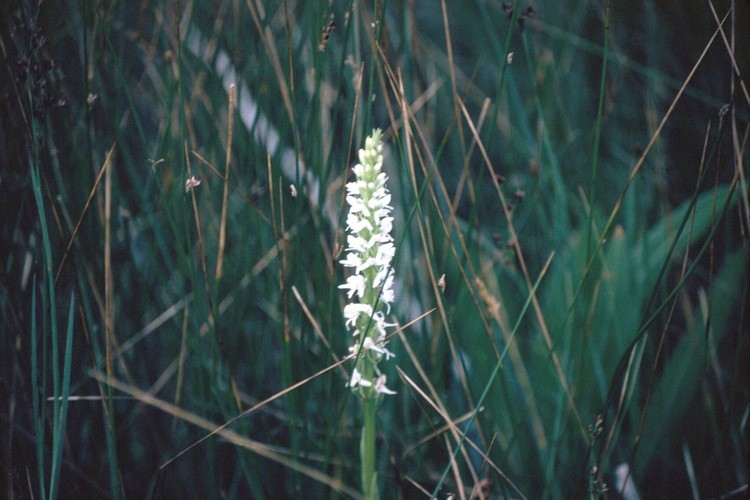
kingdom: Plantae
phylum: Tracheophyta
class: Liliopsida
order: Asparagales
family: Orchidaceae
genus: Platanthera
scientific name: Platanthera dilatata
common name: Bog candles
